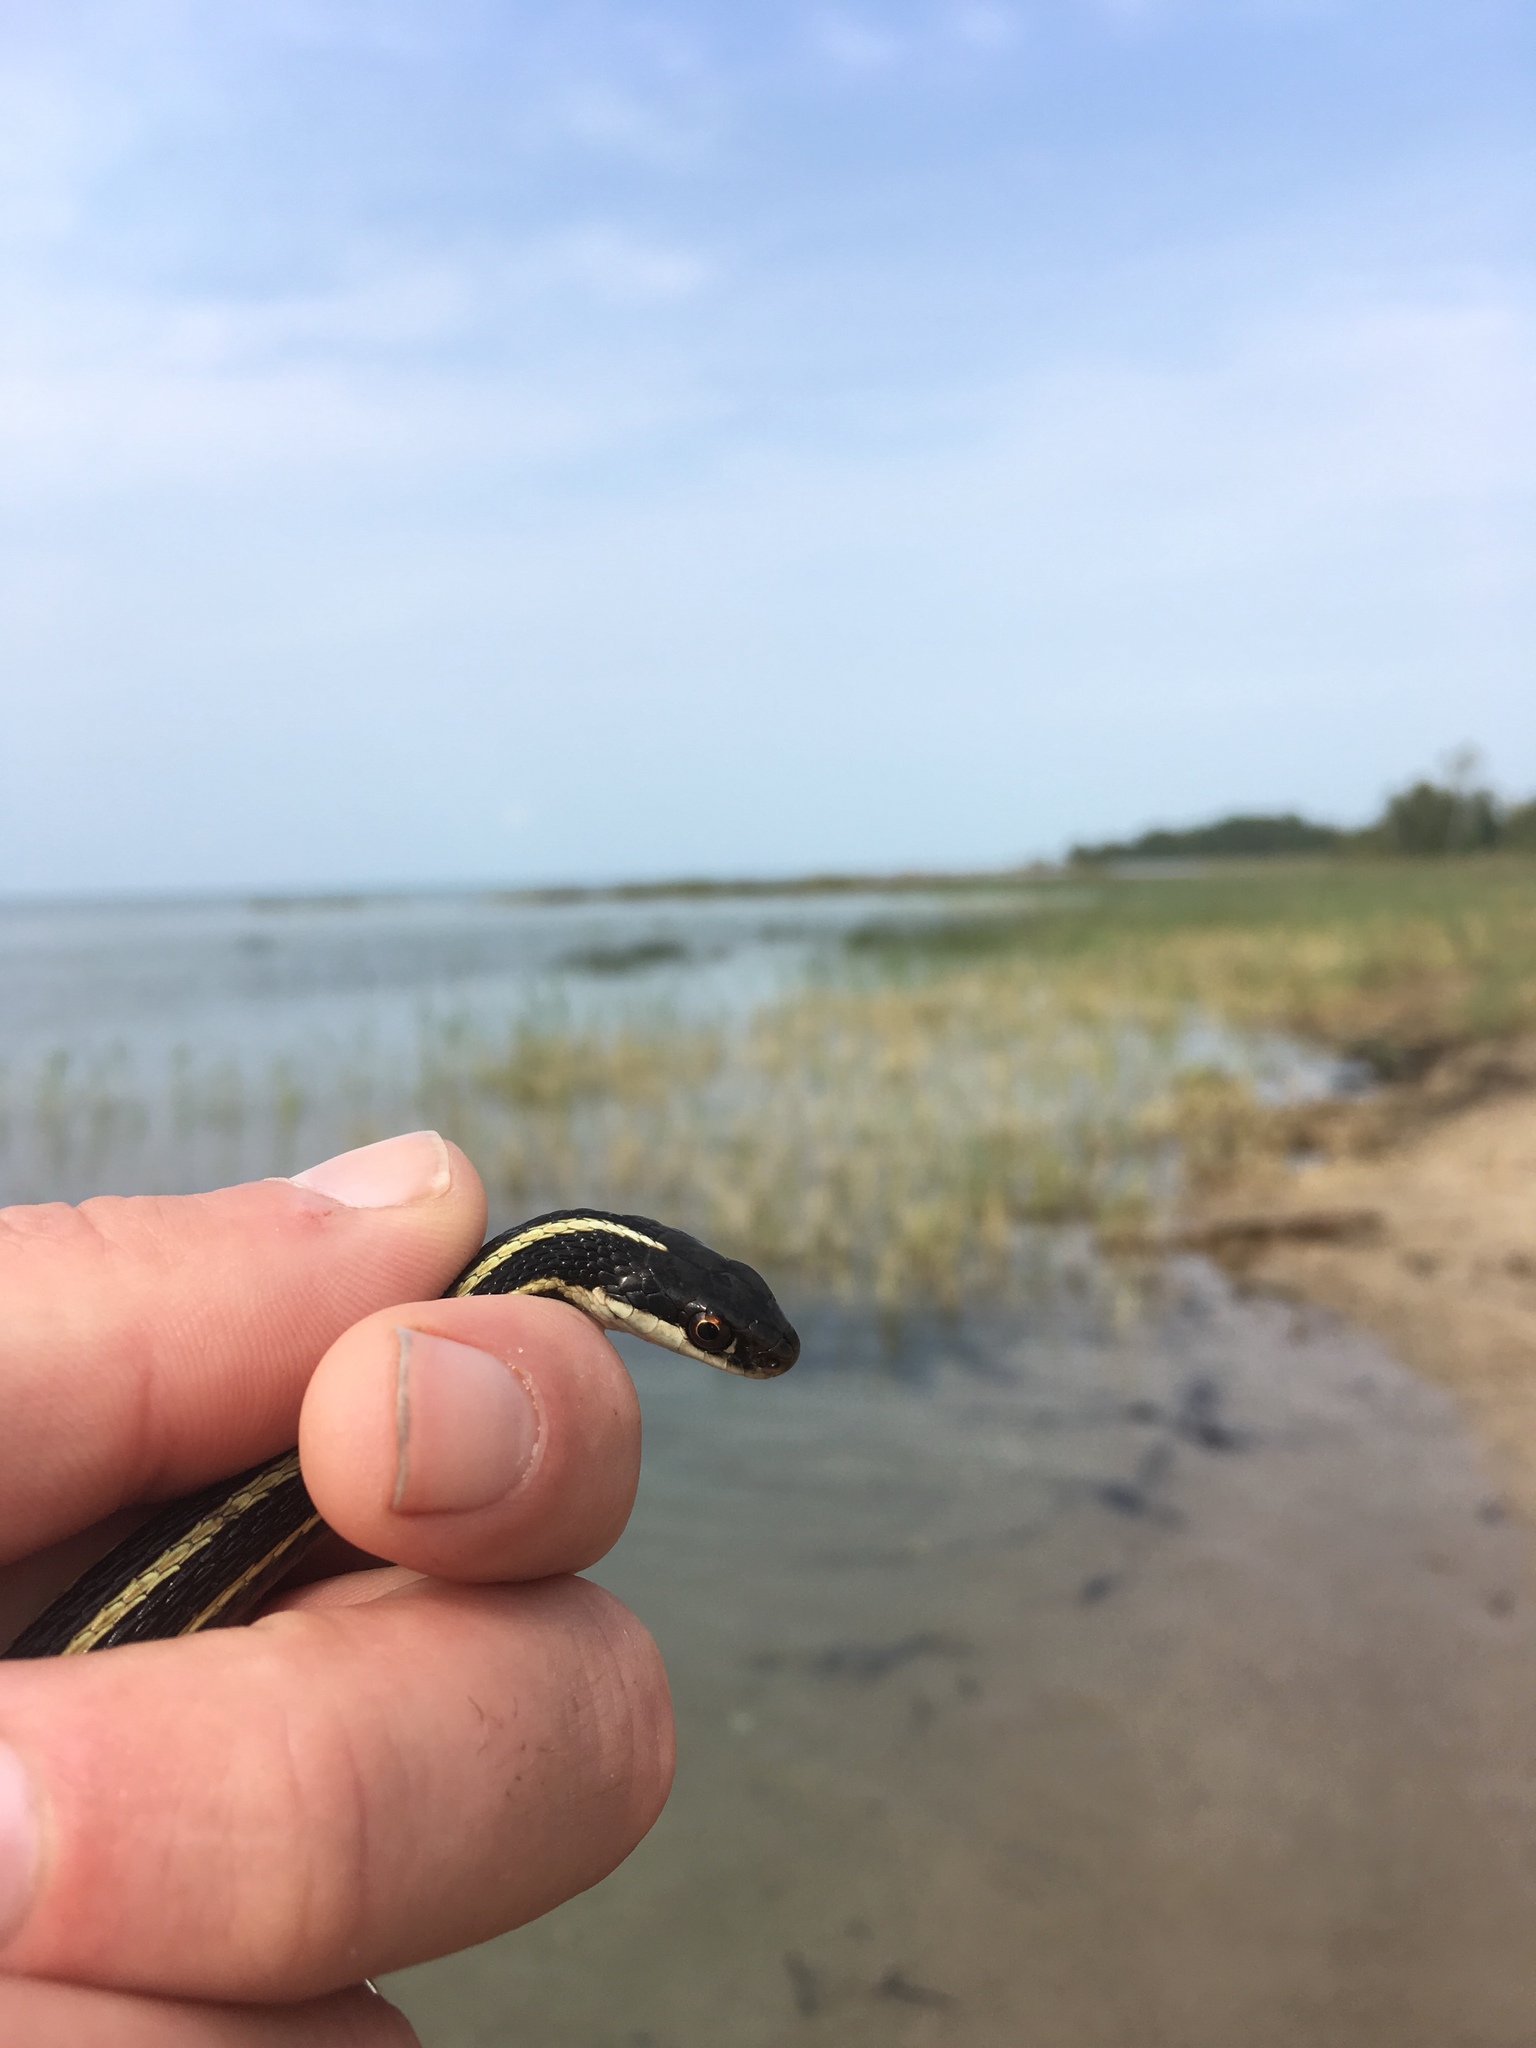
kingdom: Animalia
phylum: Chordata
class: Squamata
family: Colubridae
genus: Thamnophis
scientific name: Thamnophis saurita
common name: Eastern ribbonsnake
